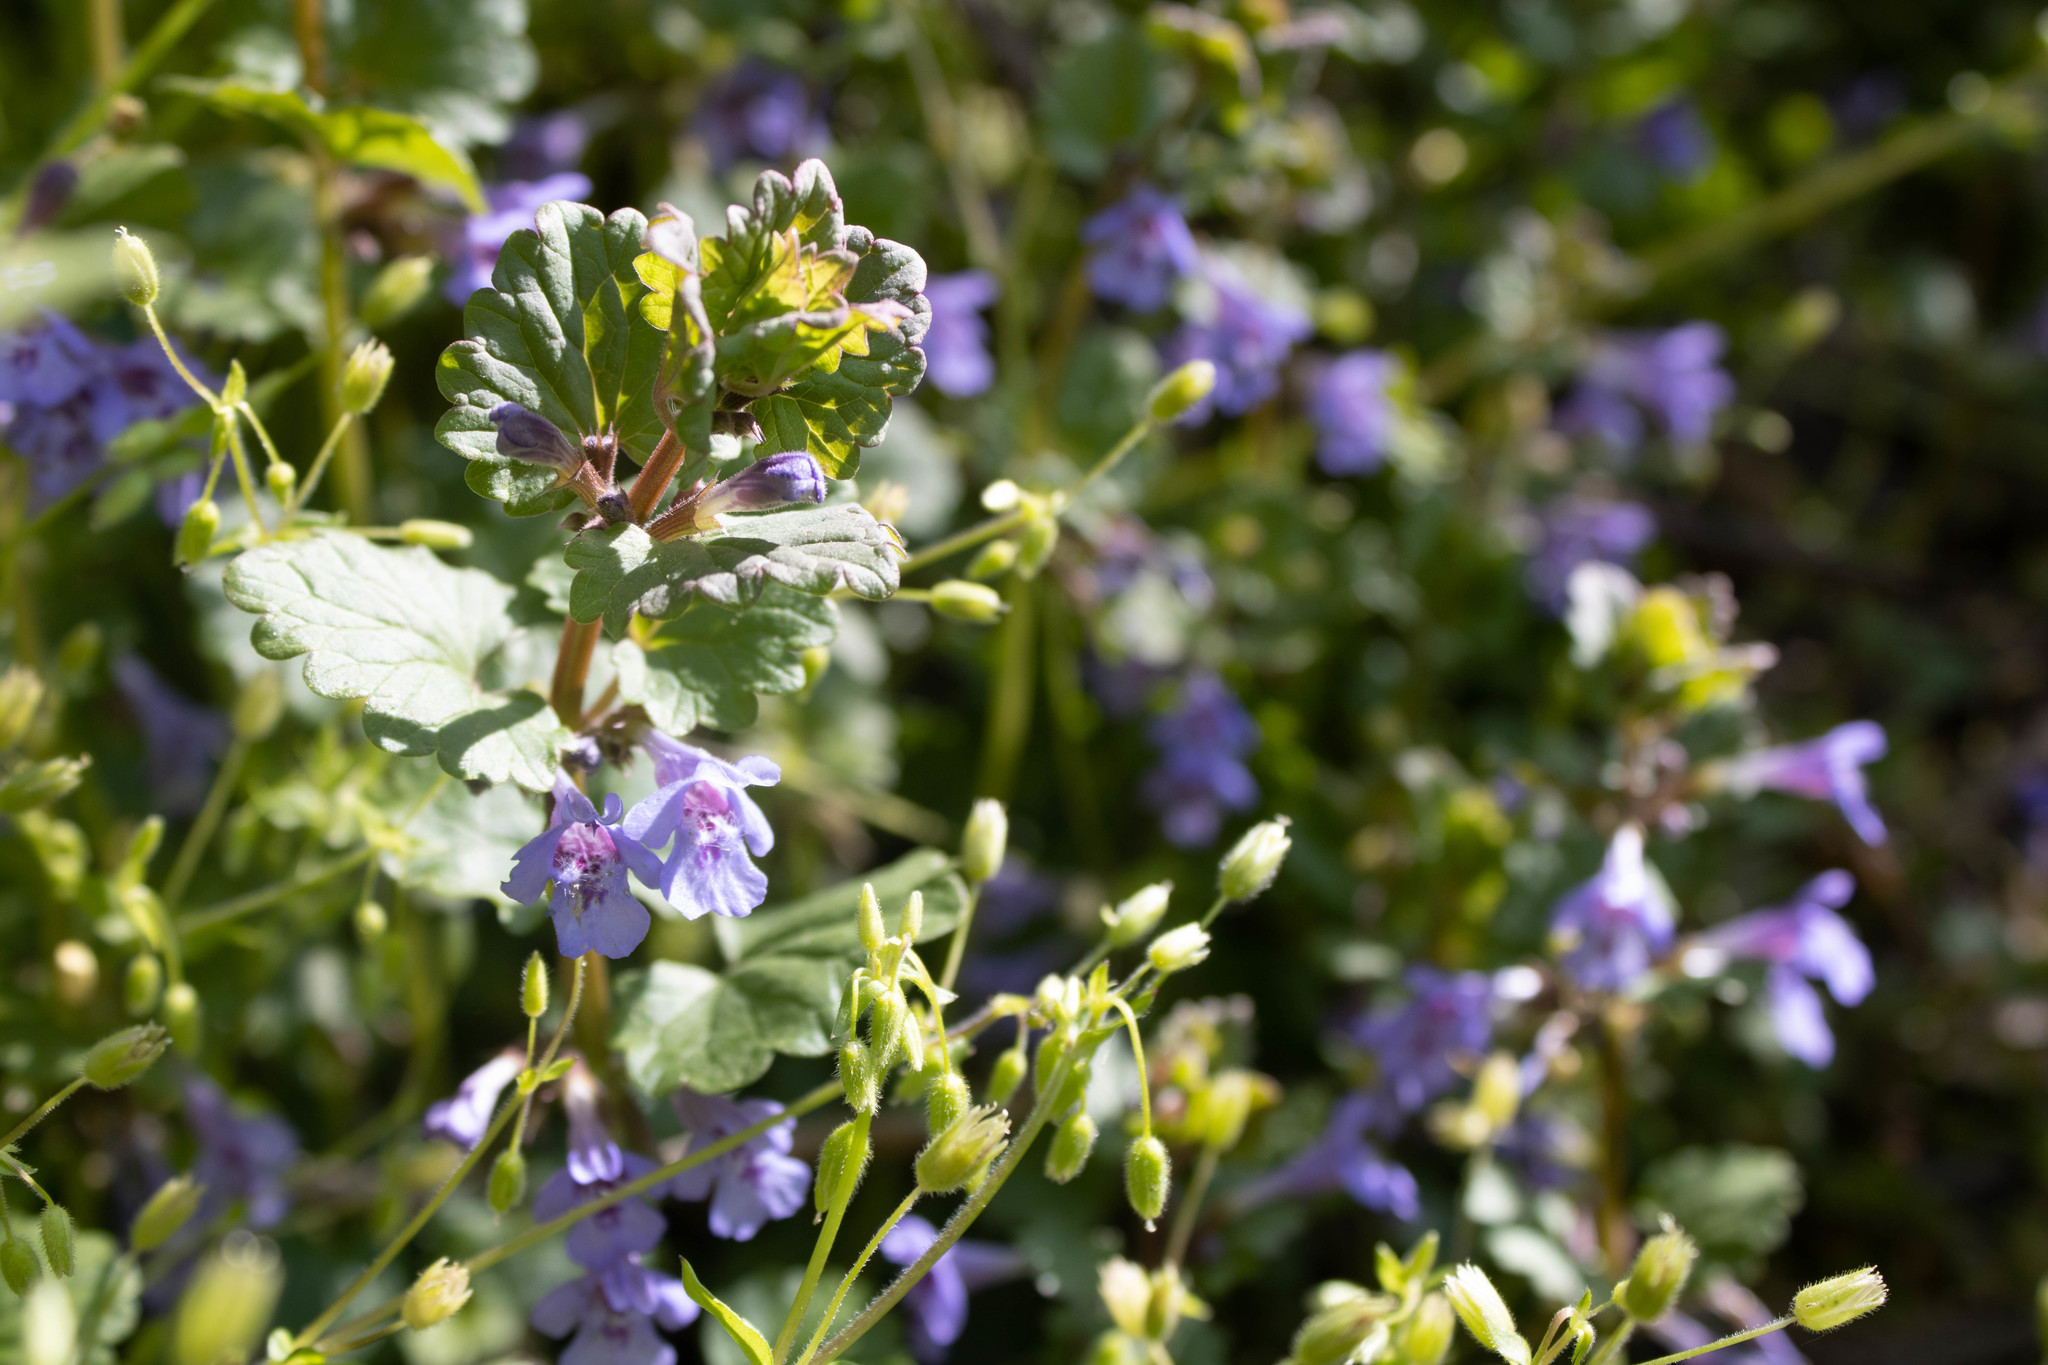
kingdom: Plantae
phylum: Tracheophyta
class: Magnoliopsida
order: Lamiales
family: Lamiaceae
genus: Glechoma
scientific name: Glechoma hederacea
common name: Ground ivy
